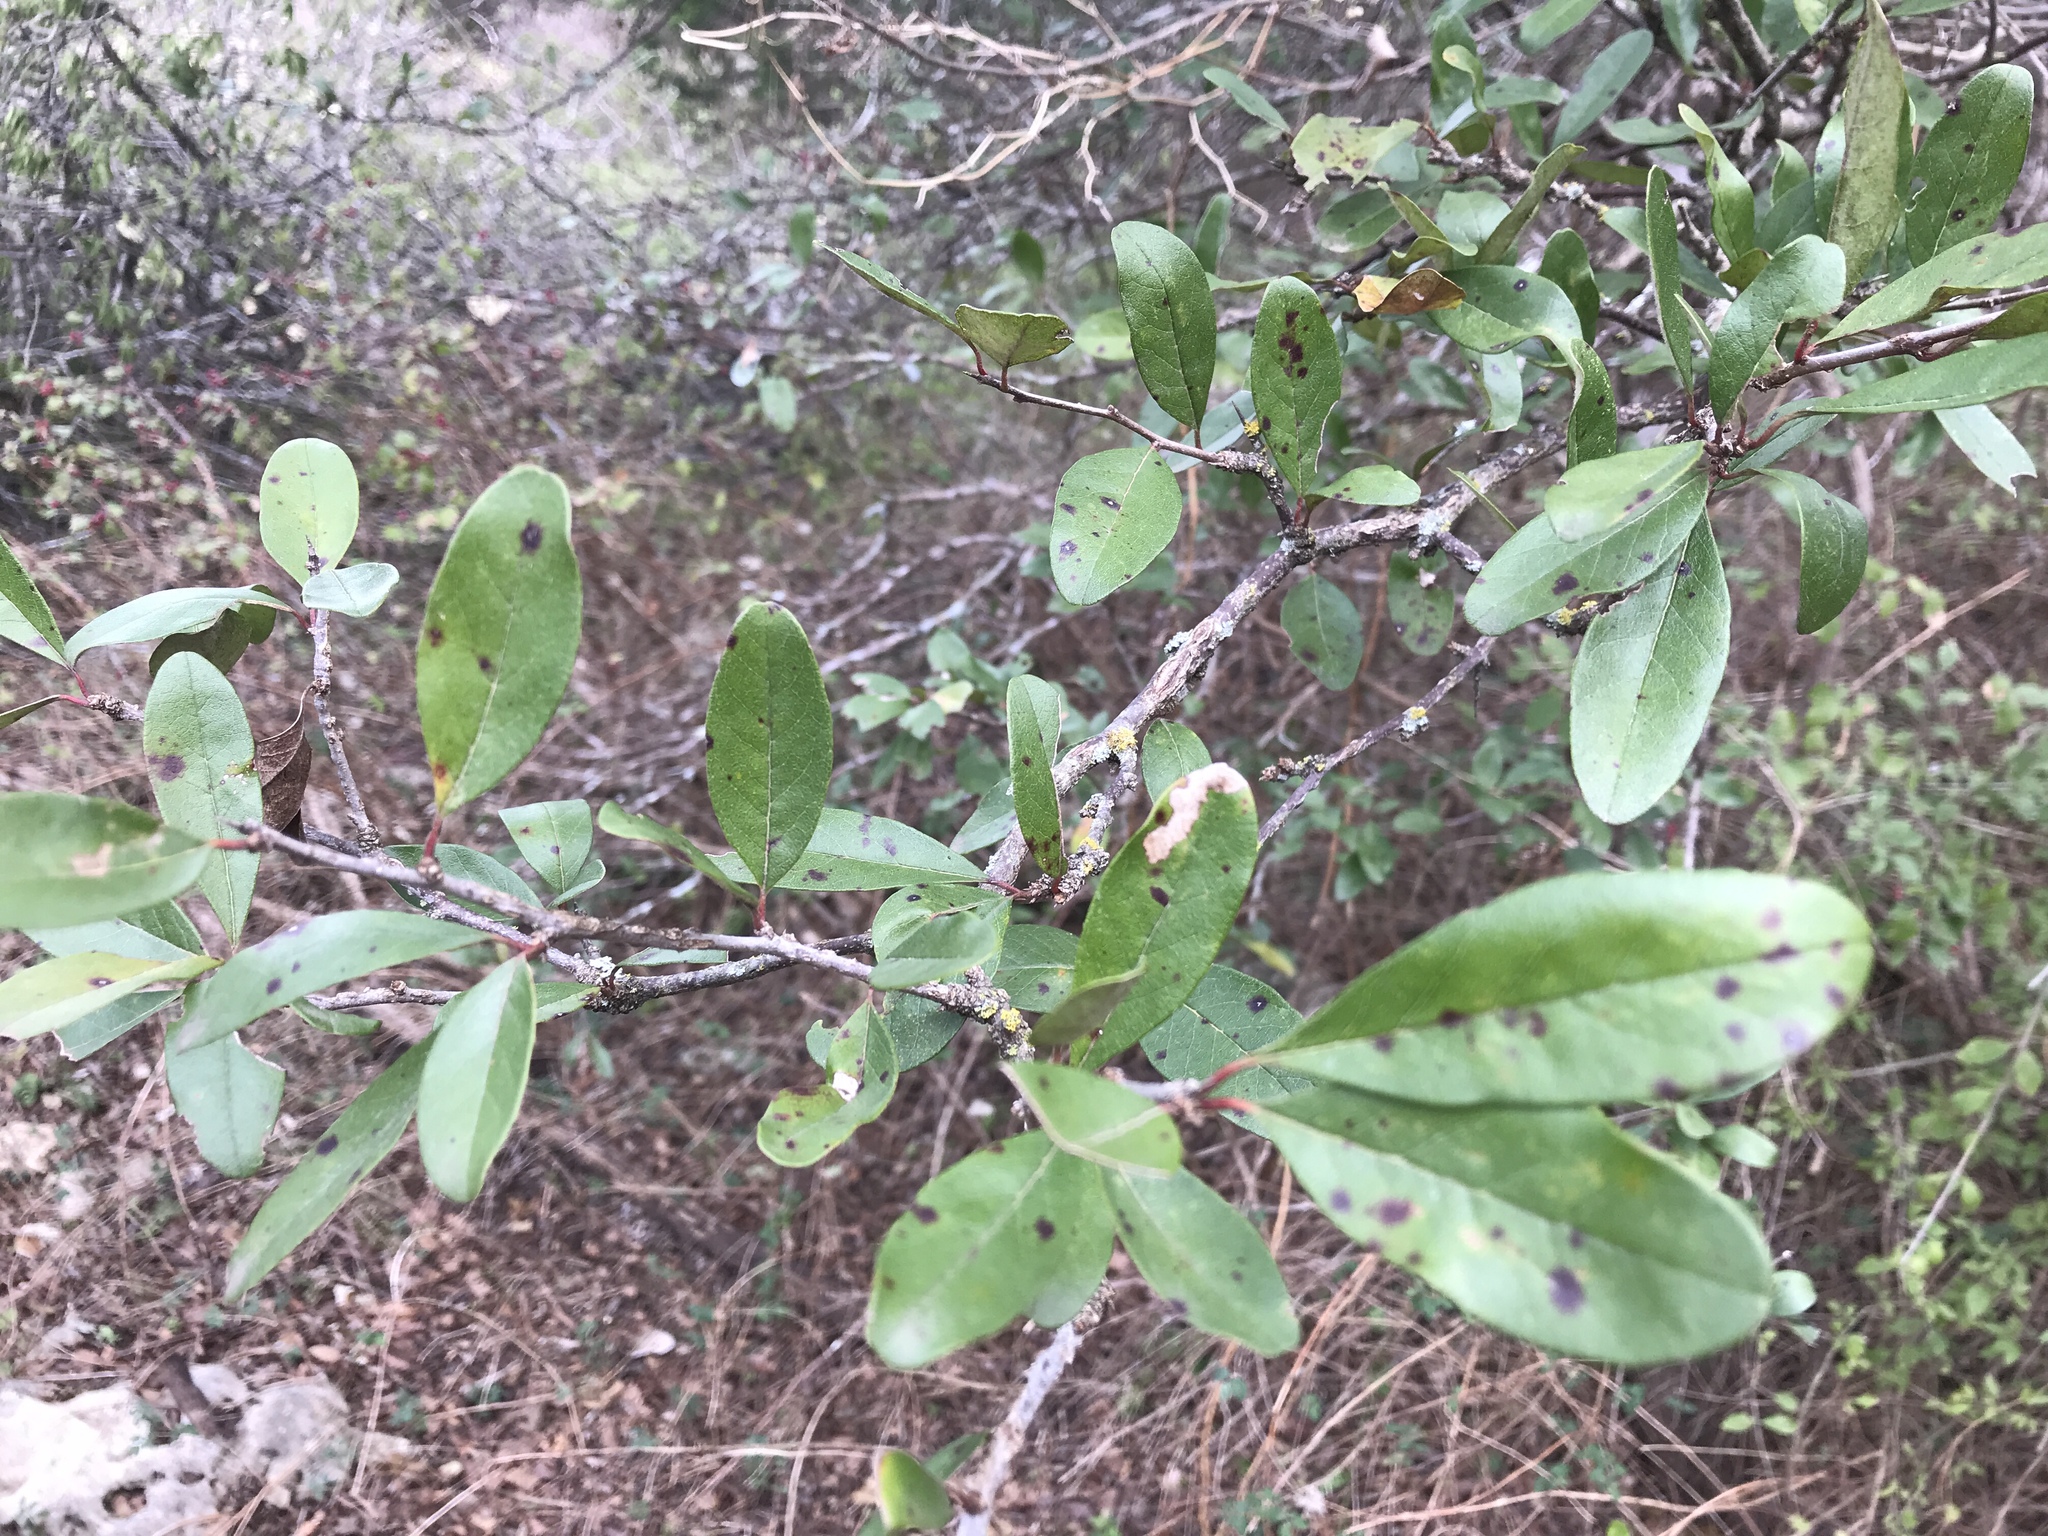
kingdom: Plantae
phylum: Tracheophyta
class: Magnoliopsida
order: Ericales
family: Sapotaceae
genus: Sideroxylon
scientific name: Sideroxylon lanuginosum
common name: Chittamwood
